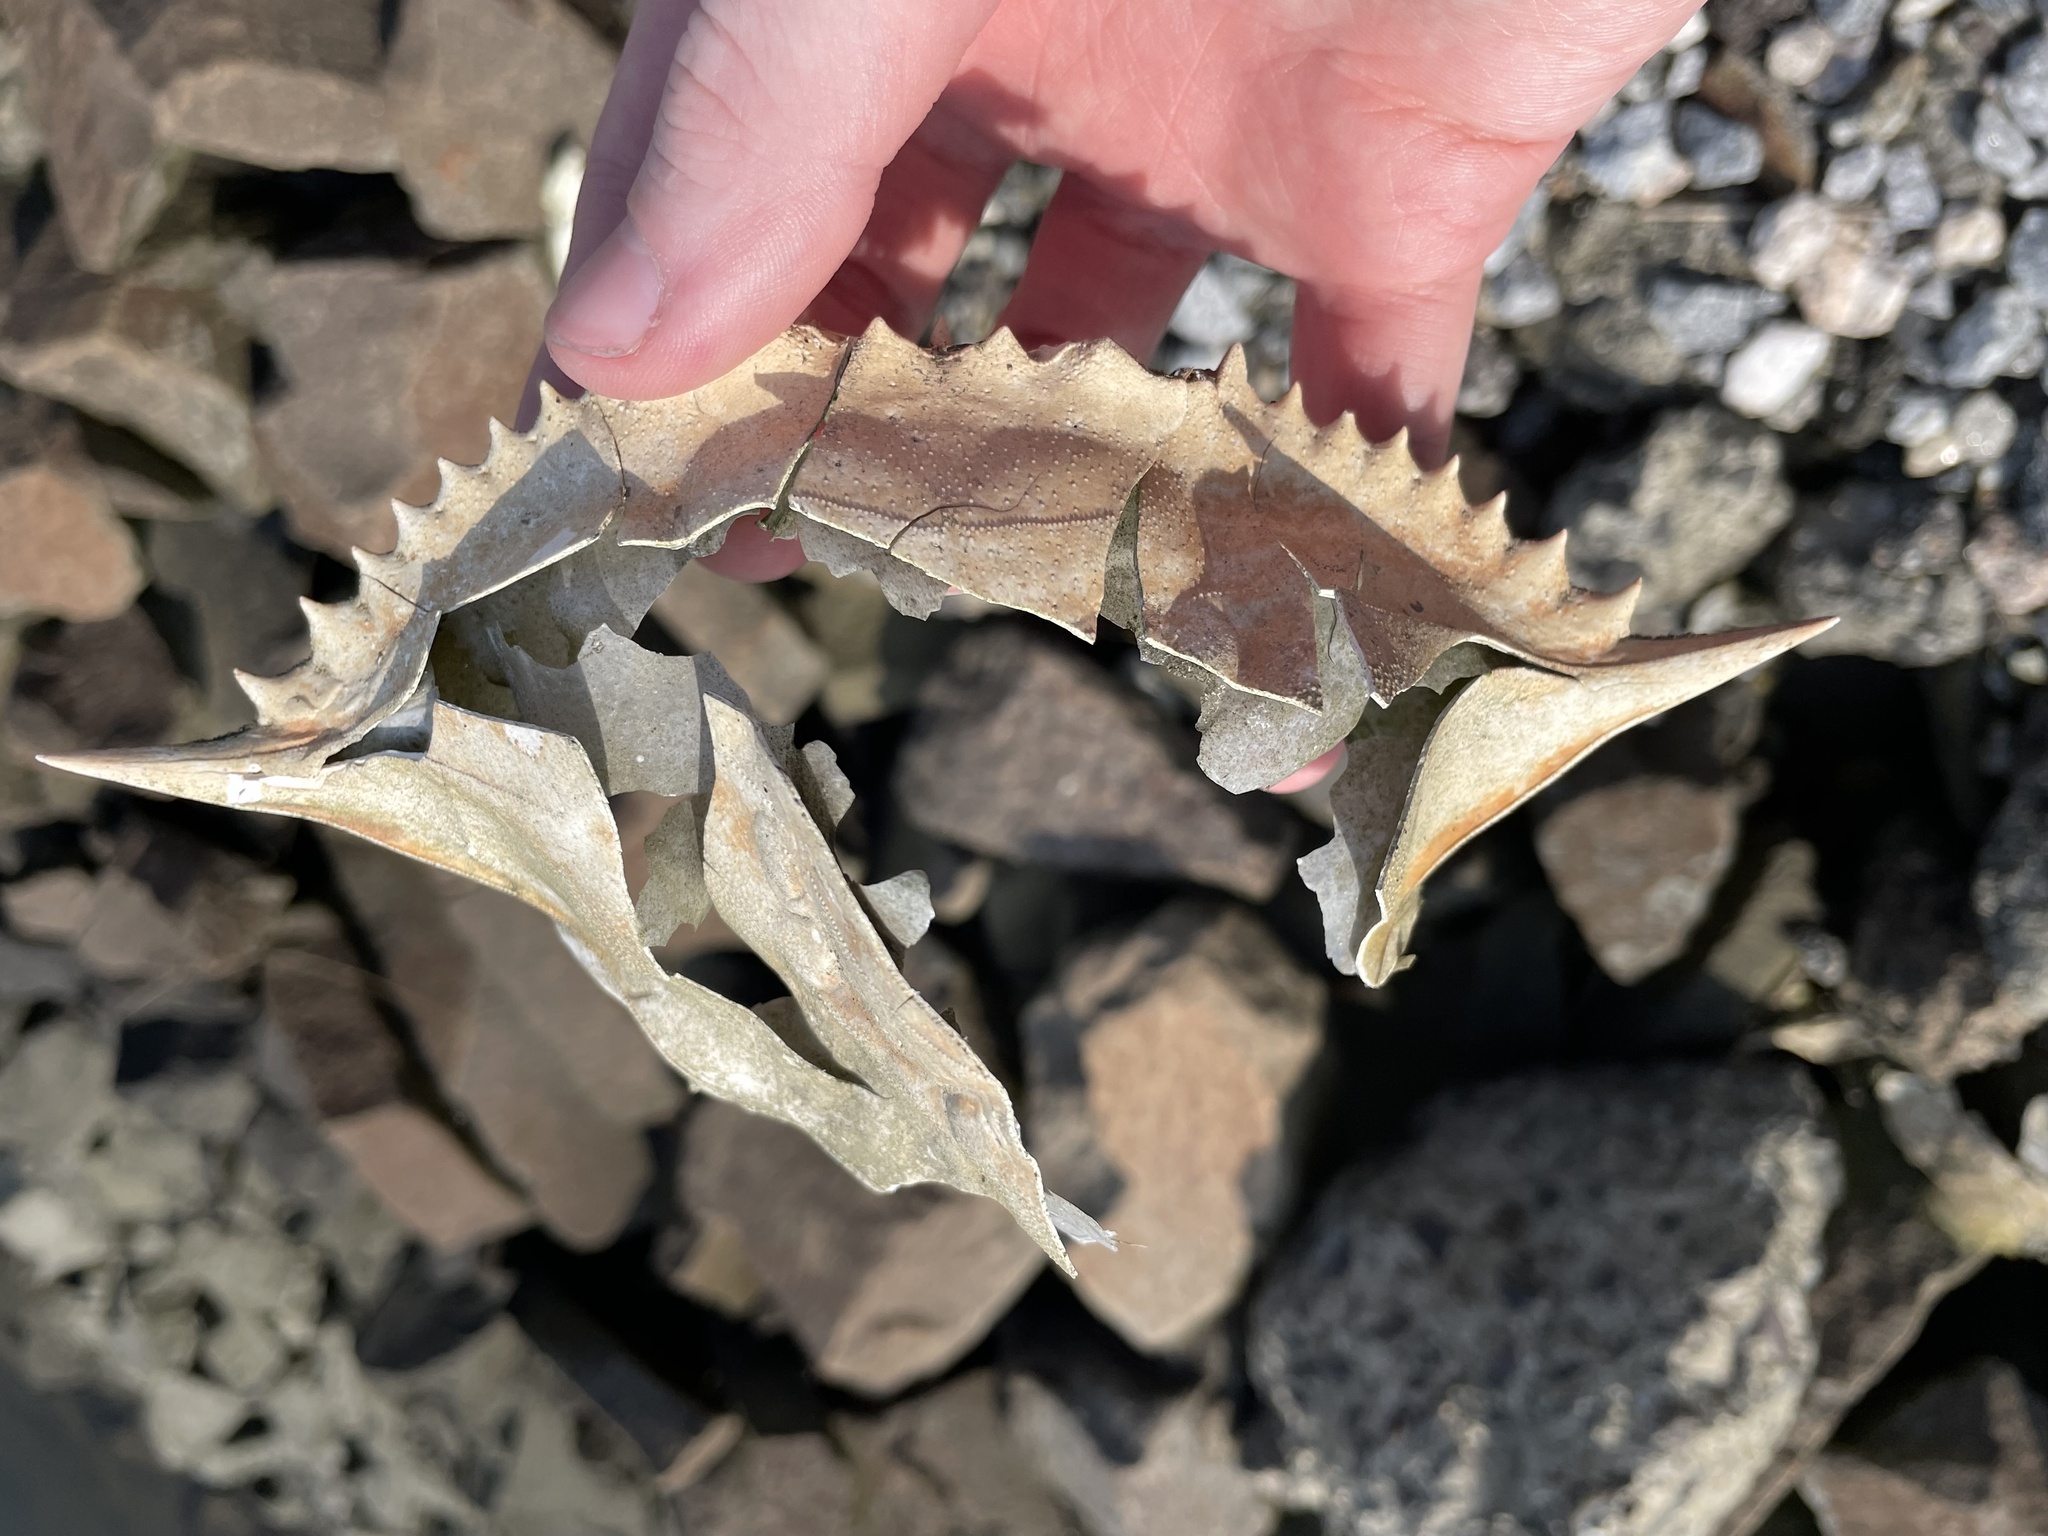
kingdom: Animalia
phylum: Arthropoda
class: Malacostraca
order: Decapoda
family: Portunidae
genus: Callinectes
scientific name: Callinectes sapidus
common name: Blue crab
